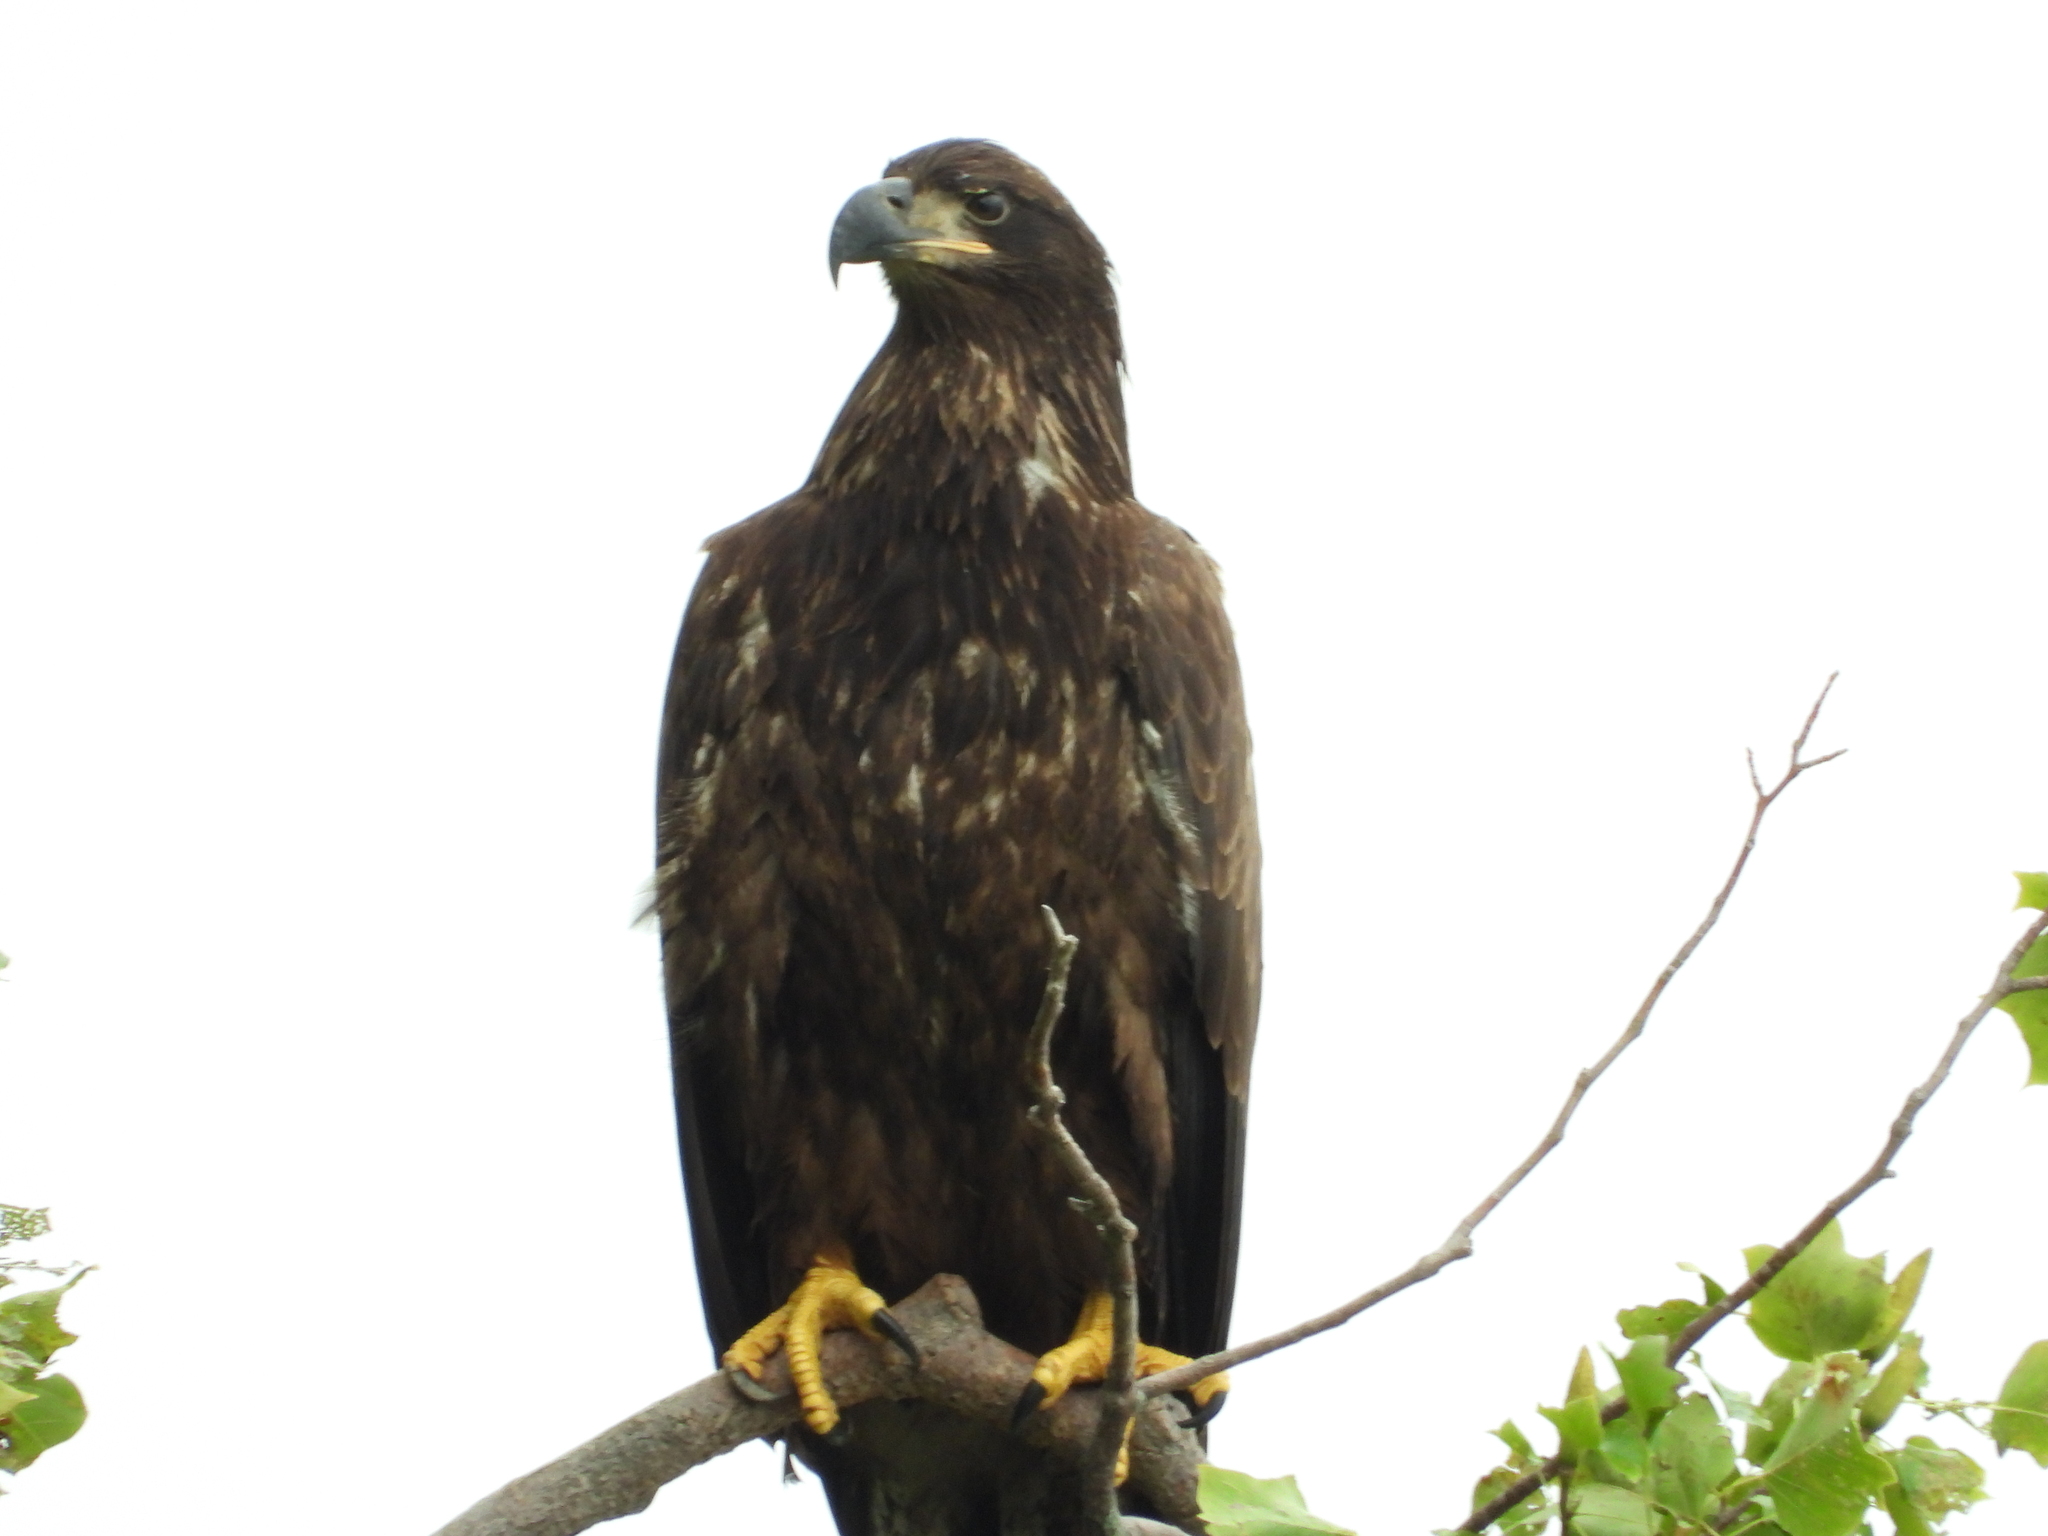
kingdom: Animalia
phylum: Chordata
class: Aves
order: Accipitriformes
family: Accipitridae
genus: Haliaeetus
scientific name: Haliaeetus leucocephalus
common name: Bald eagle
